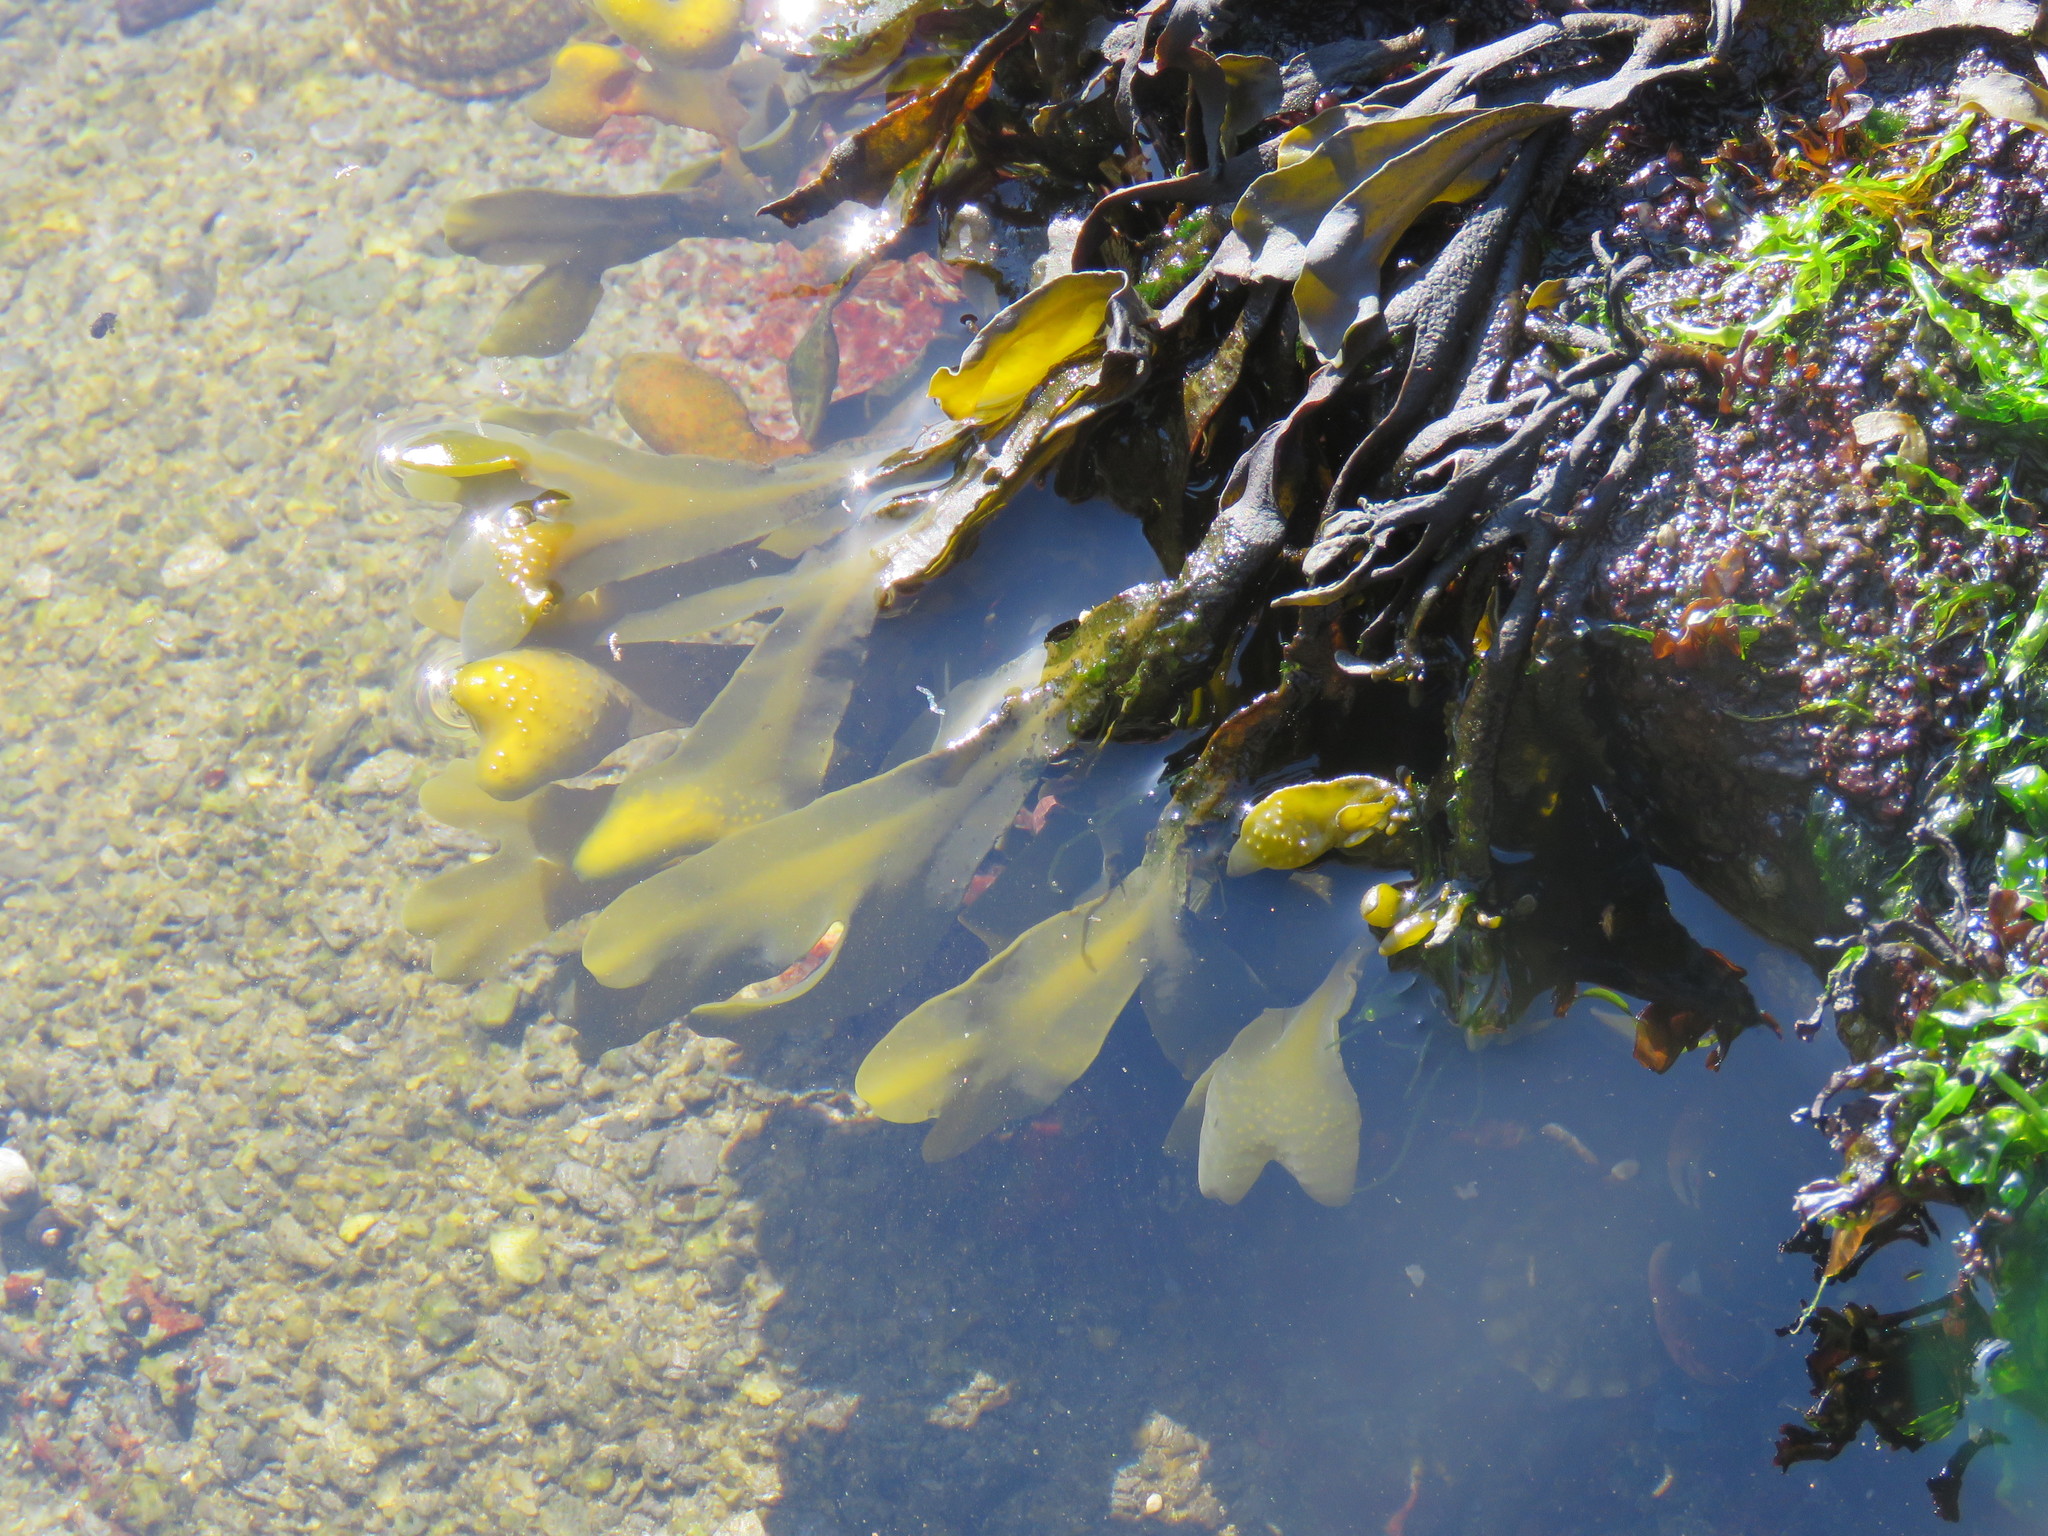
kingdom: Chromista
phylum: Ochrophyta
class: Phaeophyceae
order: Fucales
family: Fucaceae
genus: Fucus
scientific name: Fucus distichus
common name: Rockweed
